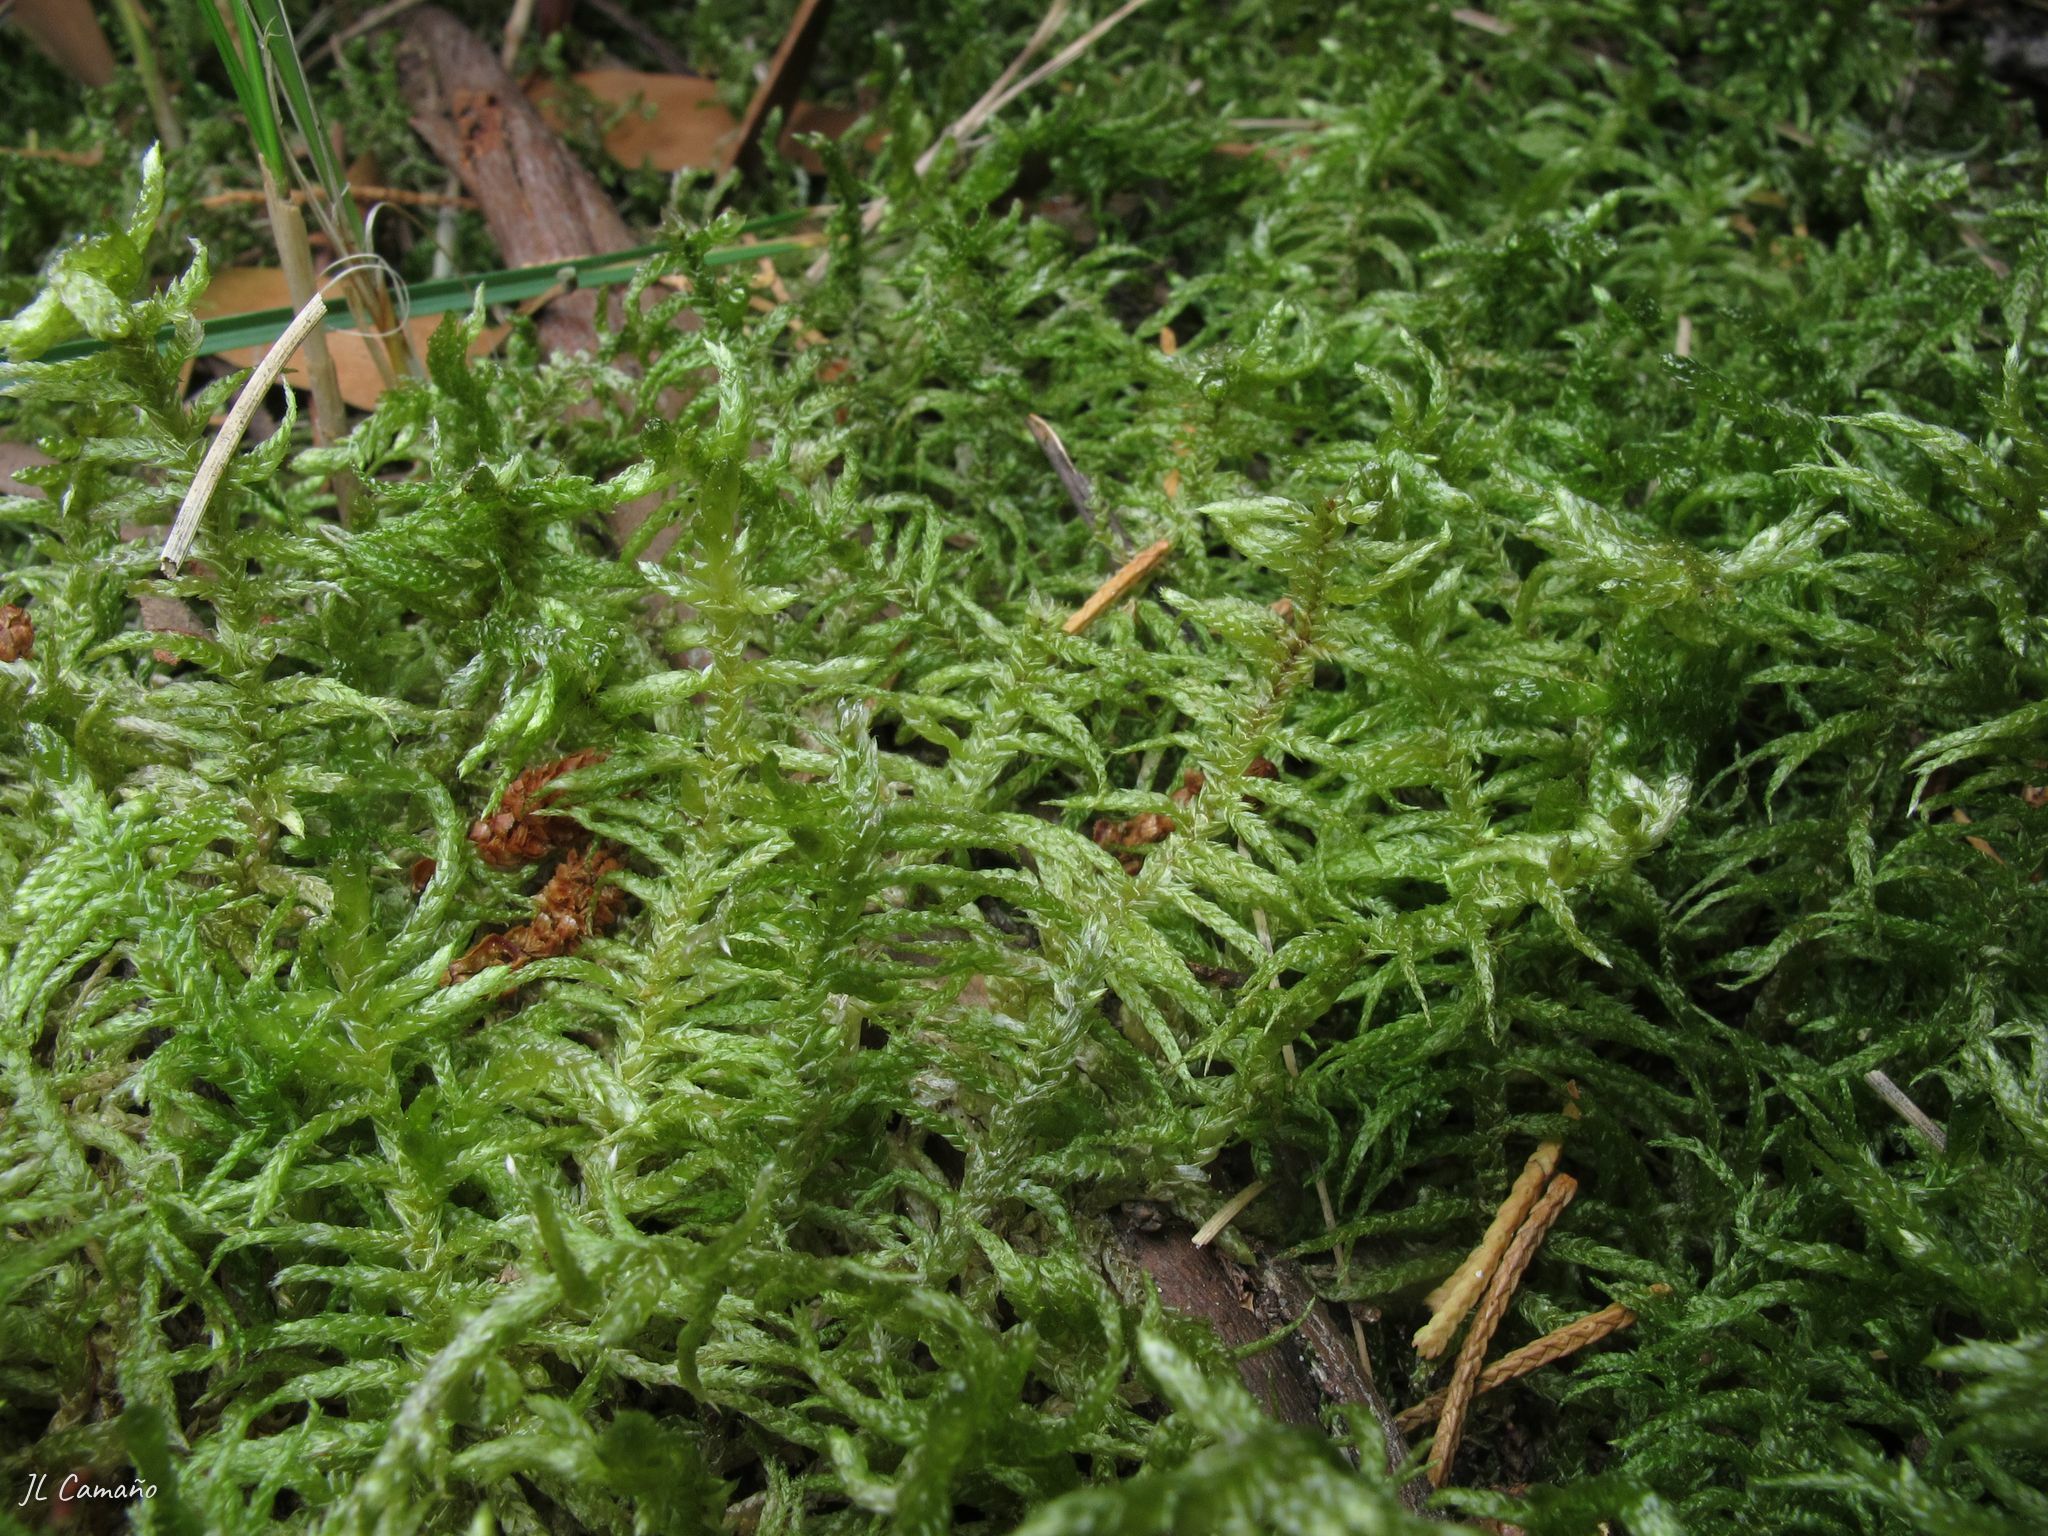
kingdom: Plantae
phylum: Bryophyta
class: Bryopsida
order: Hypnales
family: Brachytheciaceae
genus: Pseudoscleropodium
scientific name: Pseudoscleropodium purum
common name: Neat feather-moss
